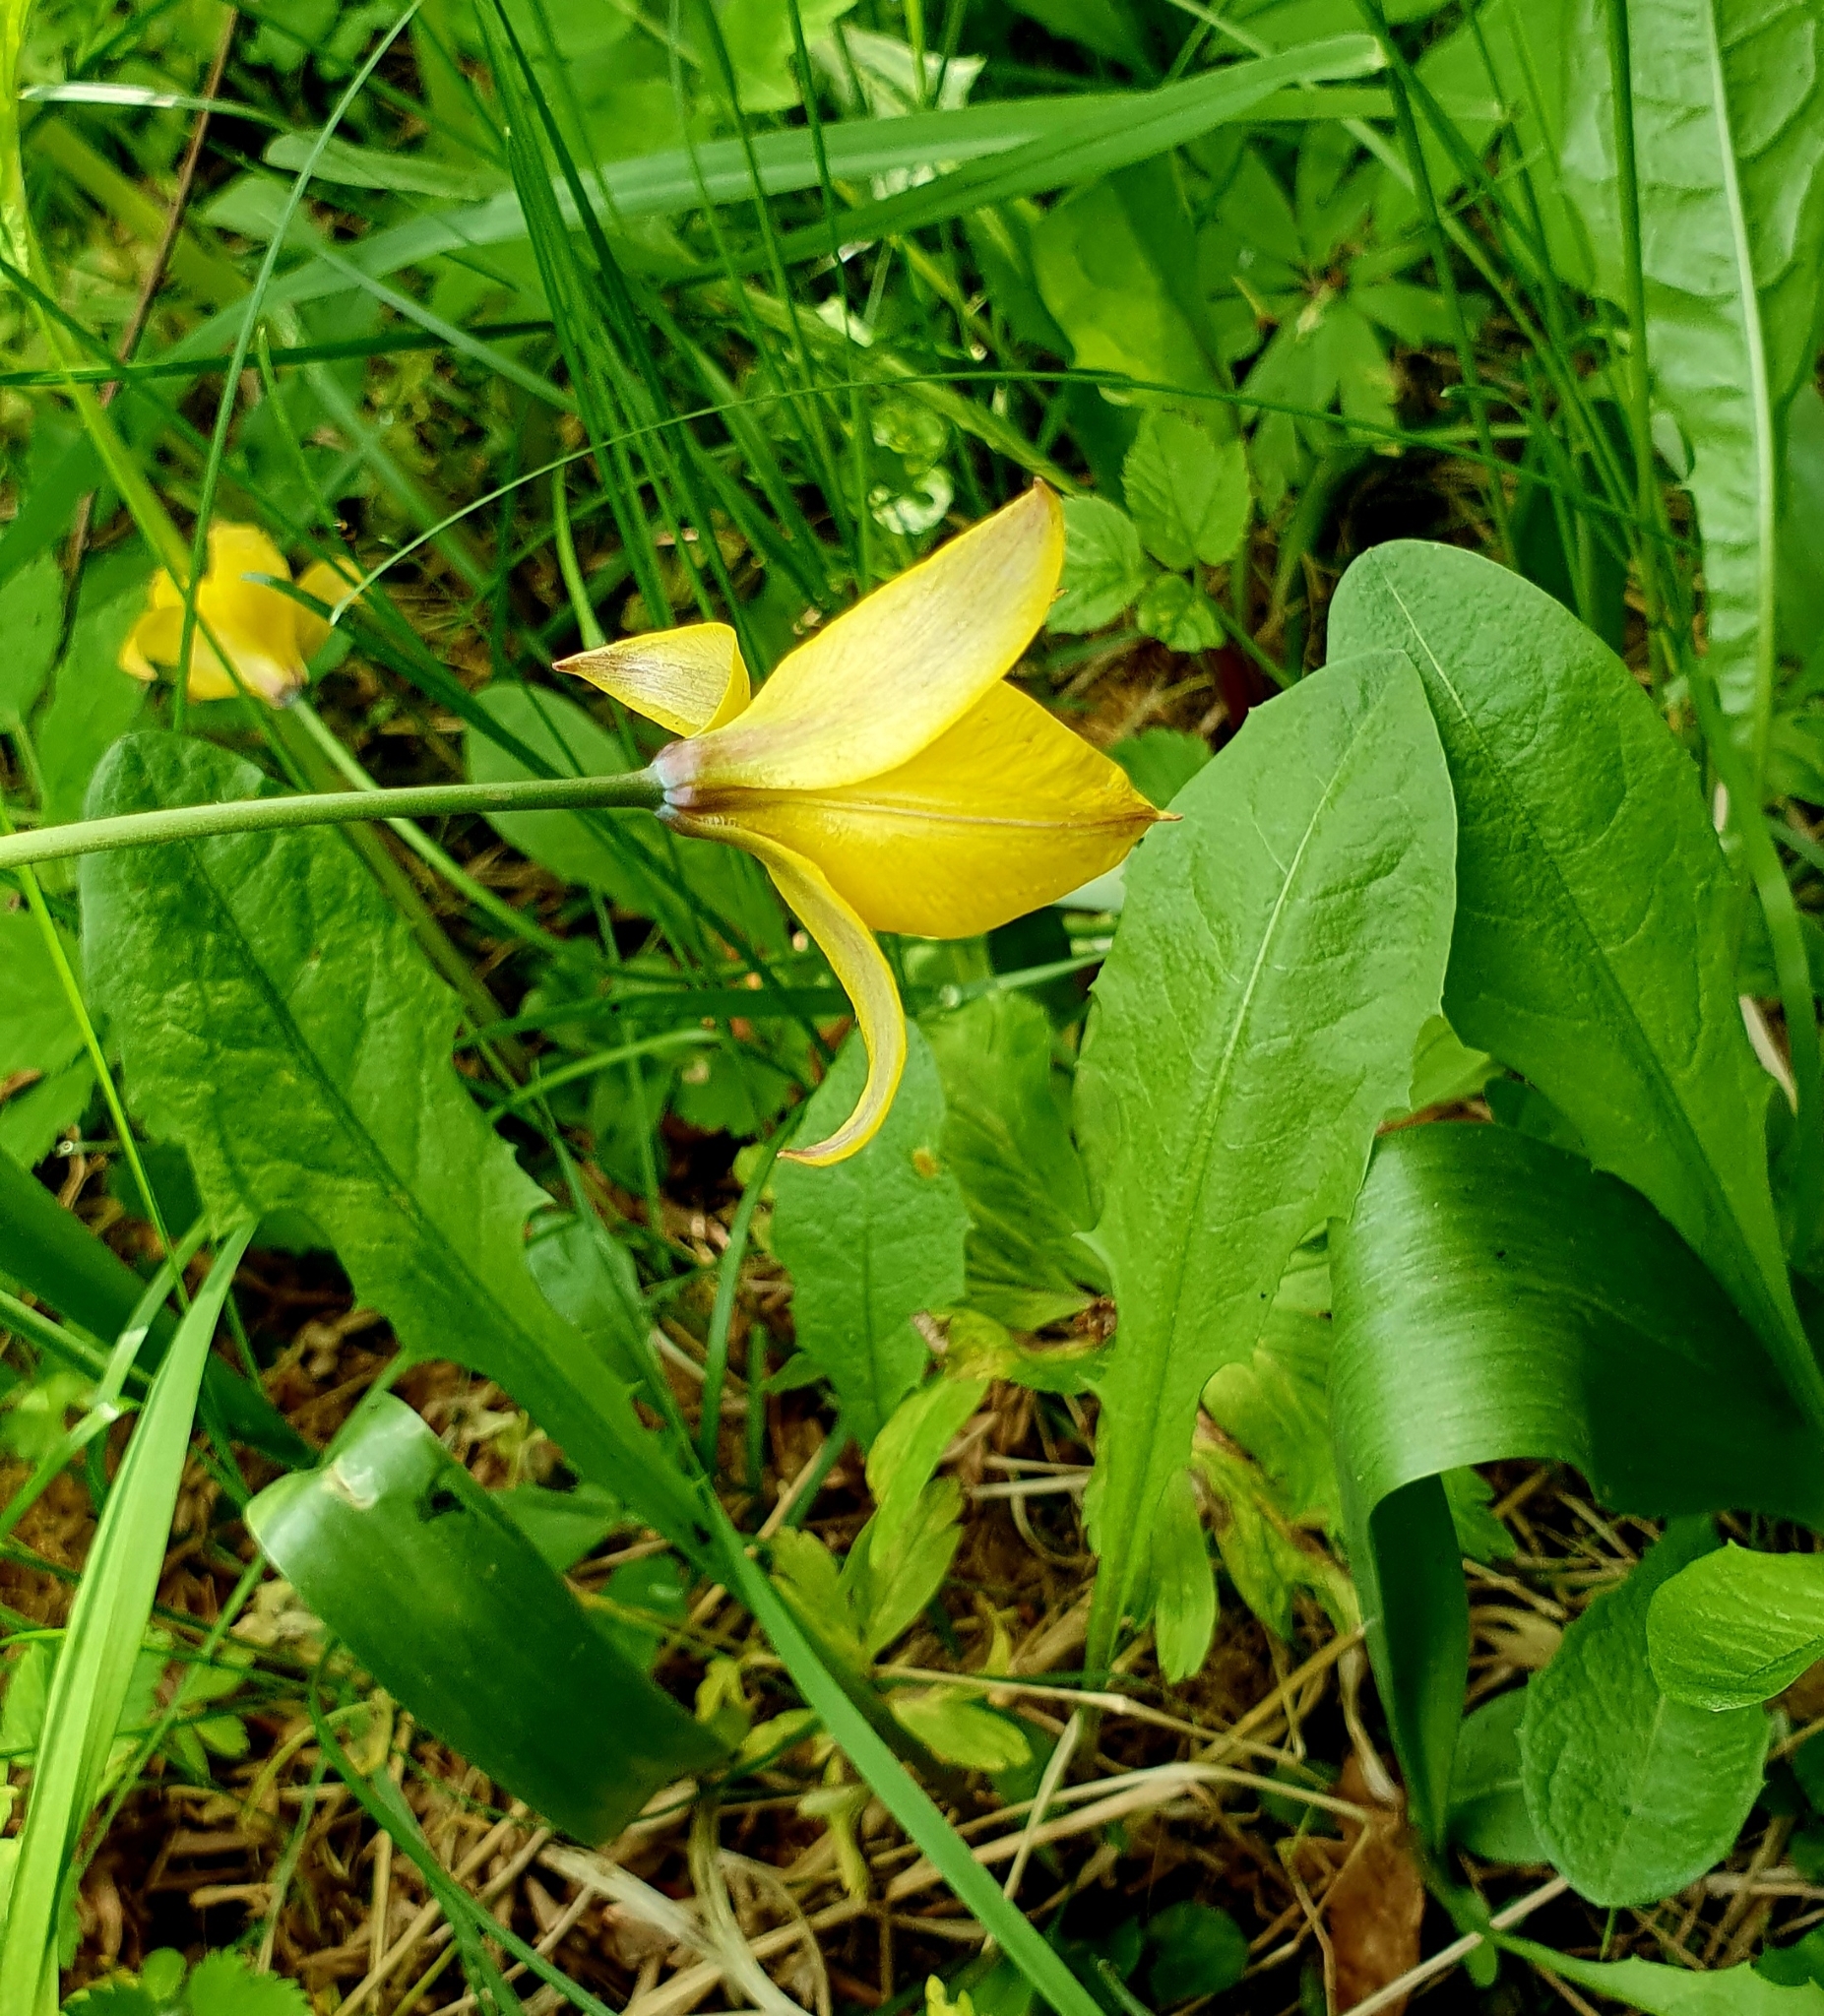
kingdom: Plantae
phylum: Tracheophyta
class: Liliopsida
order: Liliales
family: Liliaceae
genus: Tulipa
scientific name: Tulipa sylvestris
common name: Wild tulip
